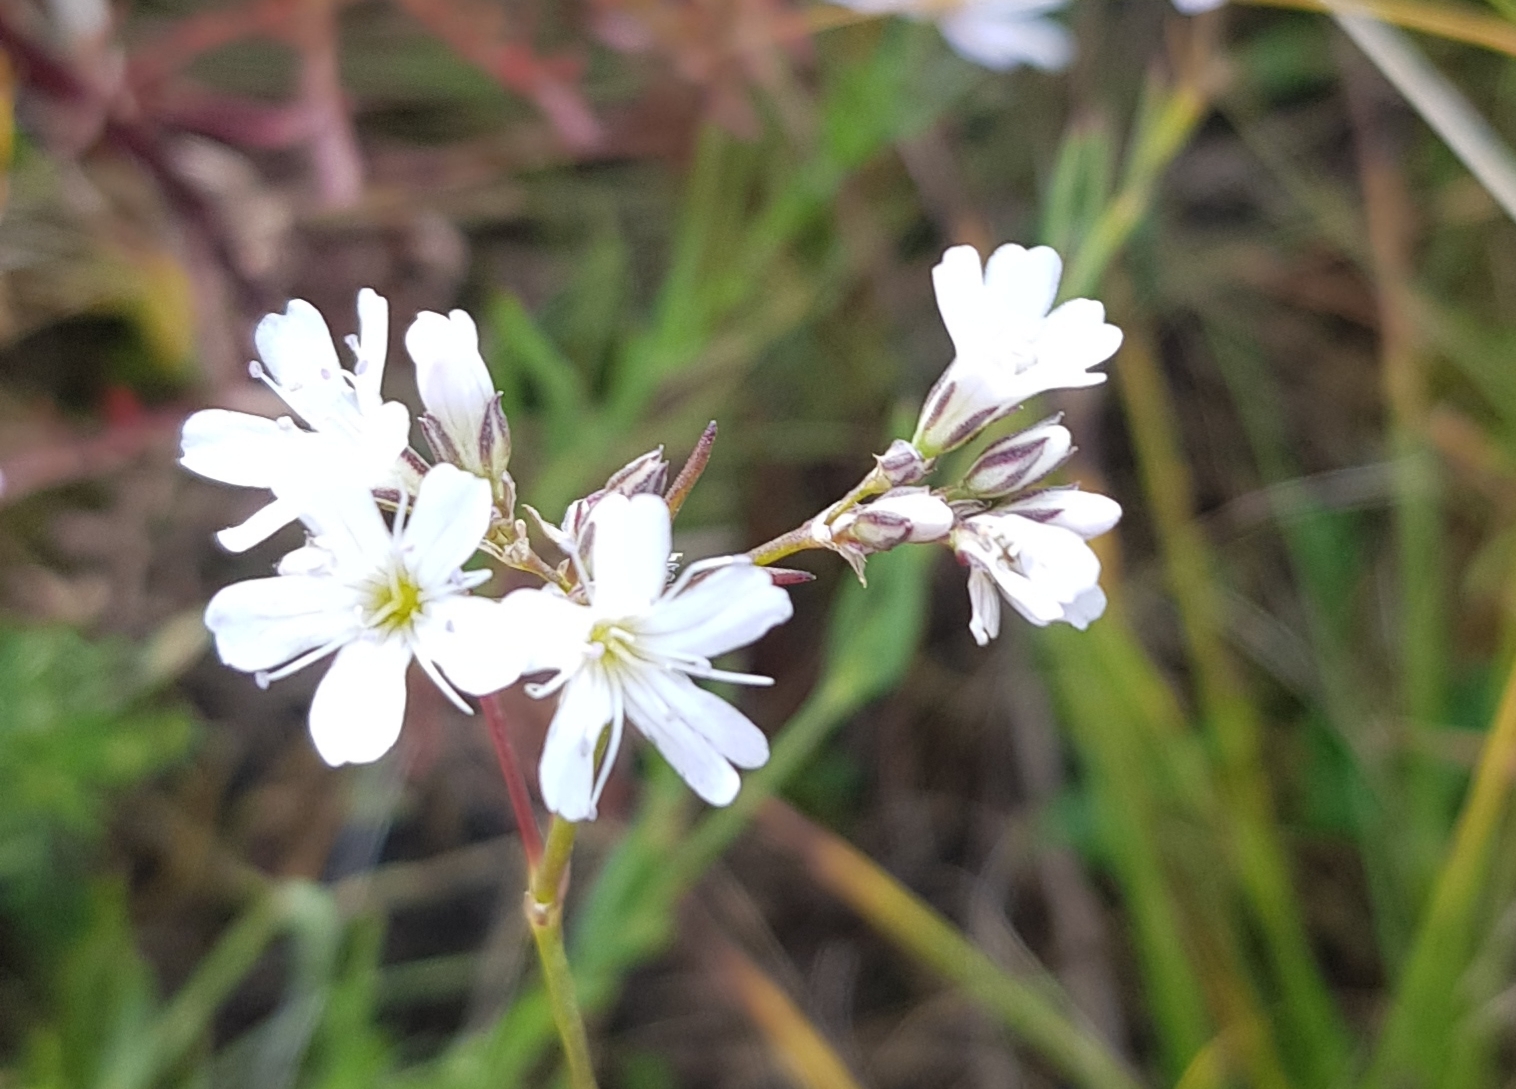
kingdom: Plantae
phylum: Tracheophyta
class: Magnoliopsida
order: Caryophyllales
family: Caryophyllaceae
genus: Gypsophila
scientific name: Gypsophila patrinii
